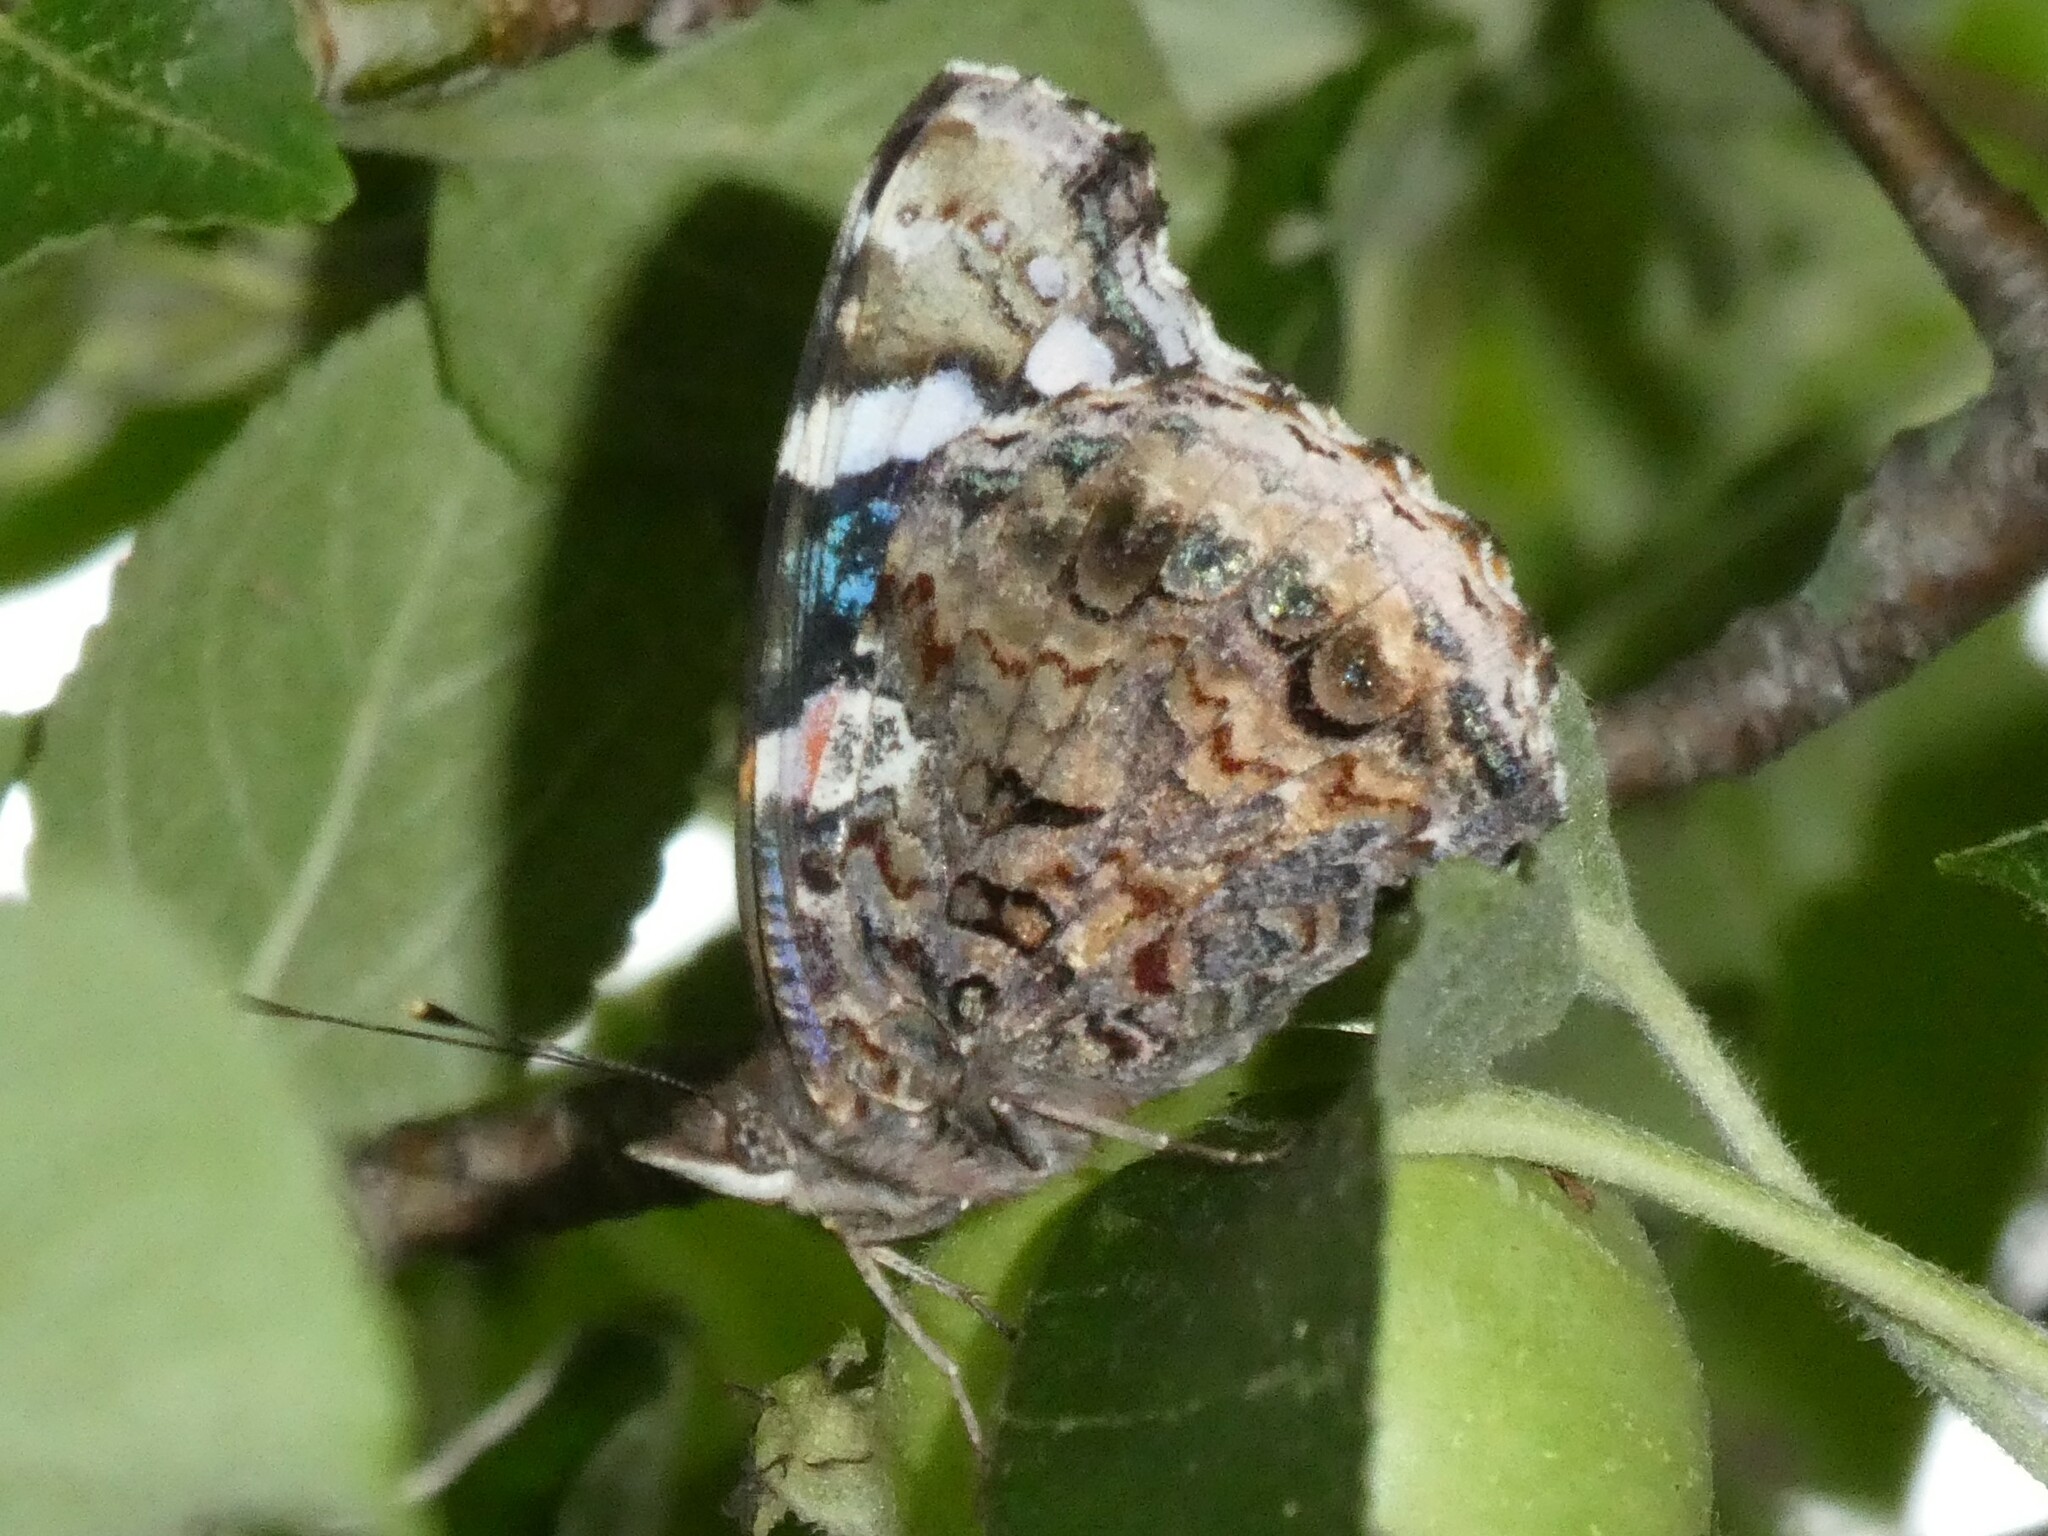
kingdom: Animalia
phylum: Arthropoda
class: Insecta
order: Lepidoptera
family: Nymphalidae
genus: Vanessa
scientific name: Vanessa atalanta
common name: Red admiral
